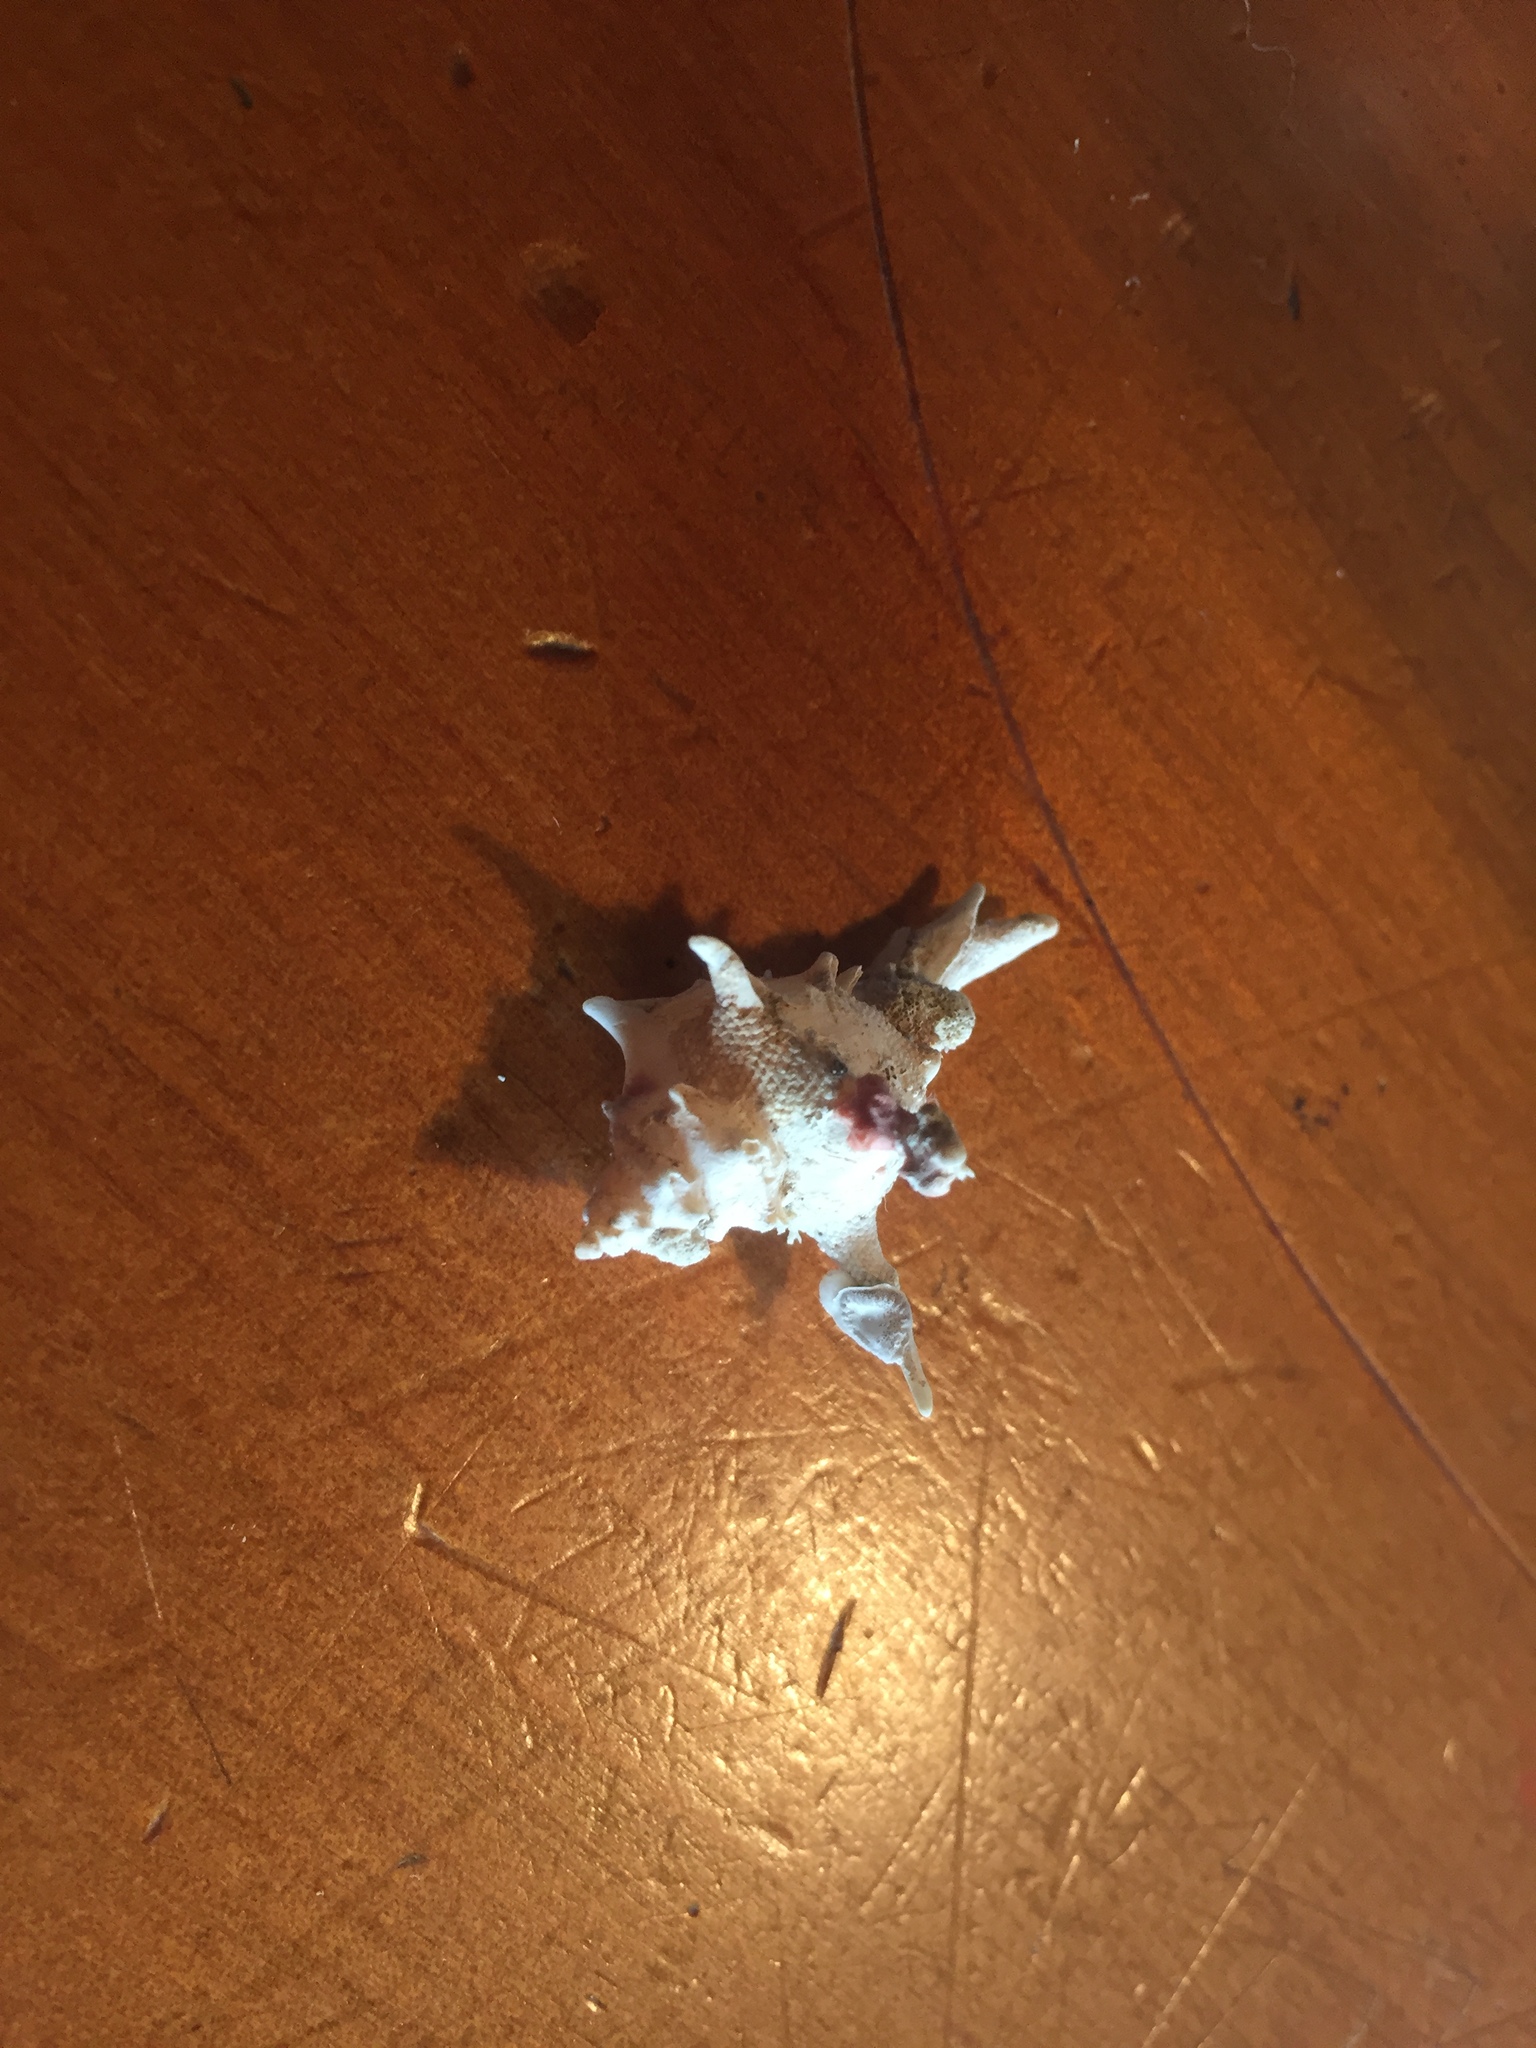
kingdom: Animalia
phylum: Mollusca
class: Gastropoda
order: Neogastropoda
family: Muricidae
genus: Poirieria
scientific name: Poirieria zelandica
